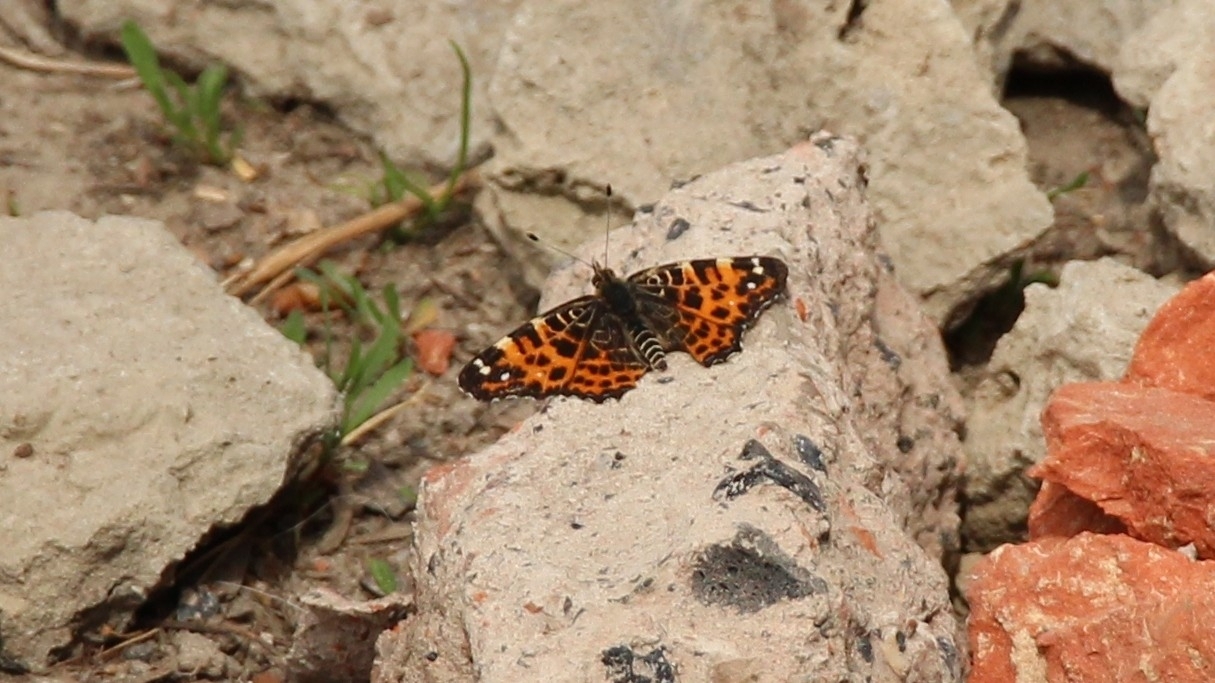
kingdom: Animalia
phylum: Arthropoda
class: Insecta
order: Lepidoptera
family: Nymphalidae
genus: Araschnia
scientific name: Araschnia levana
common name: Map butterfly
